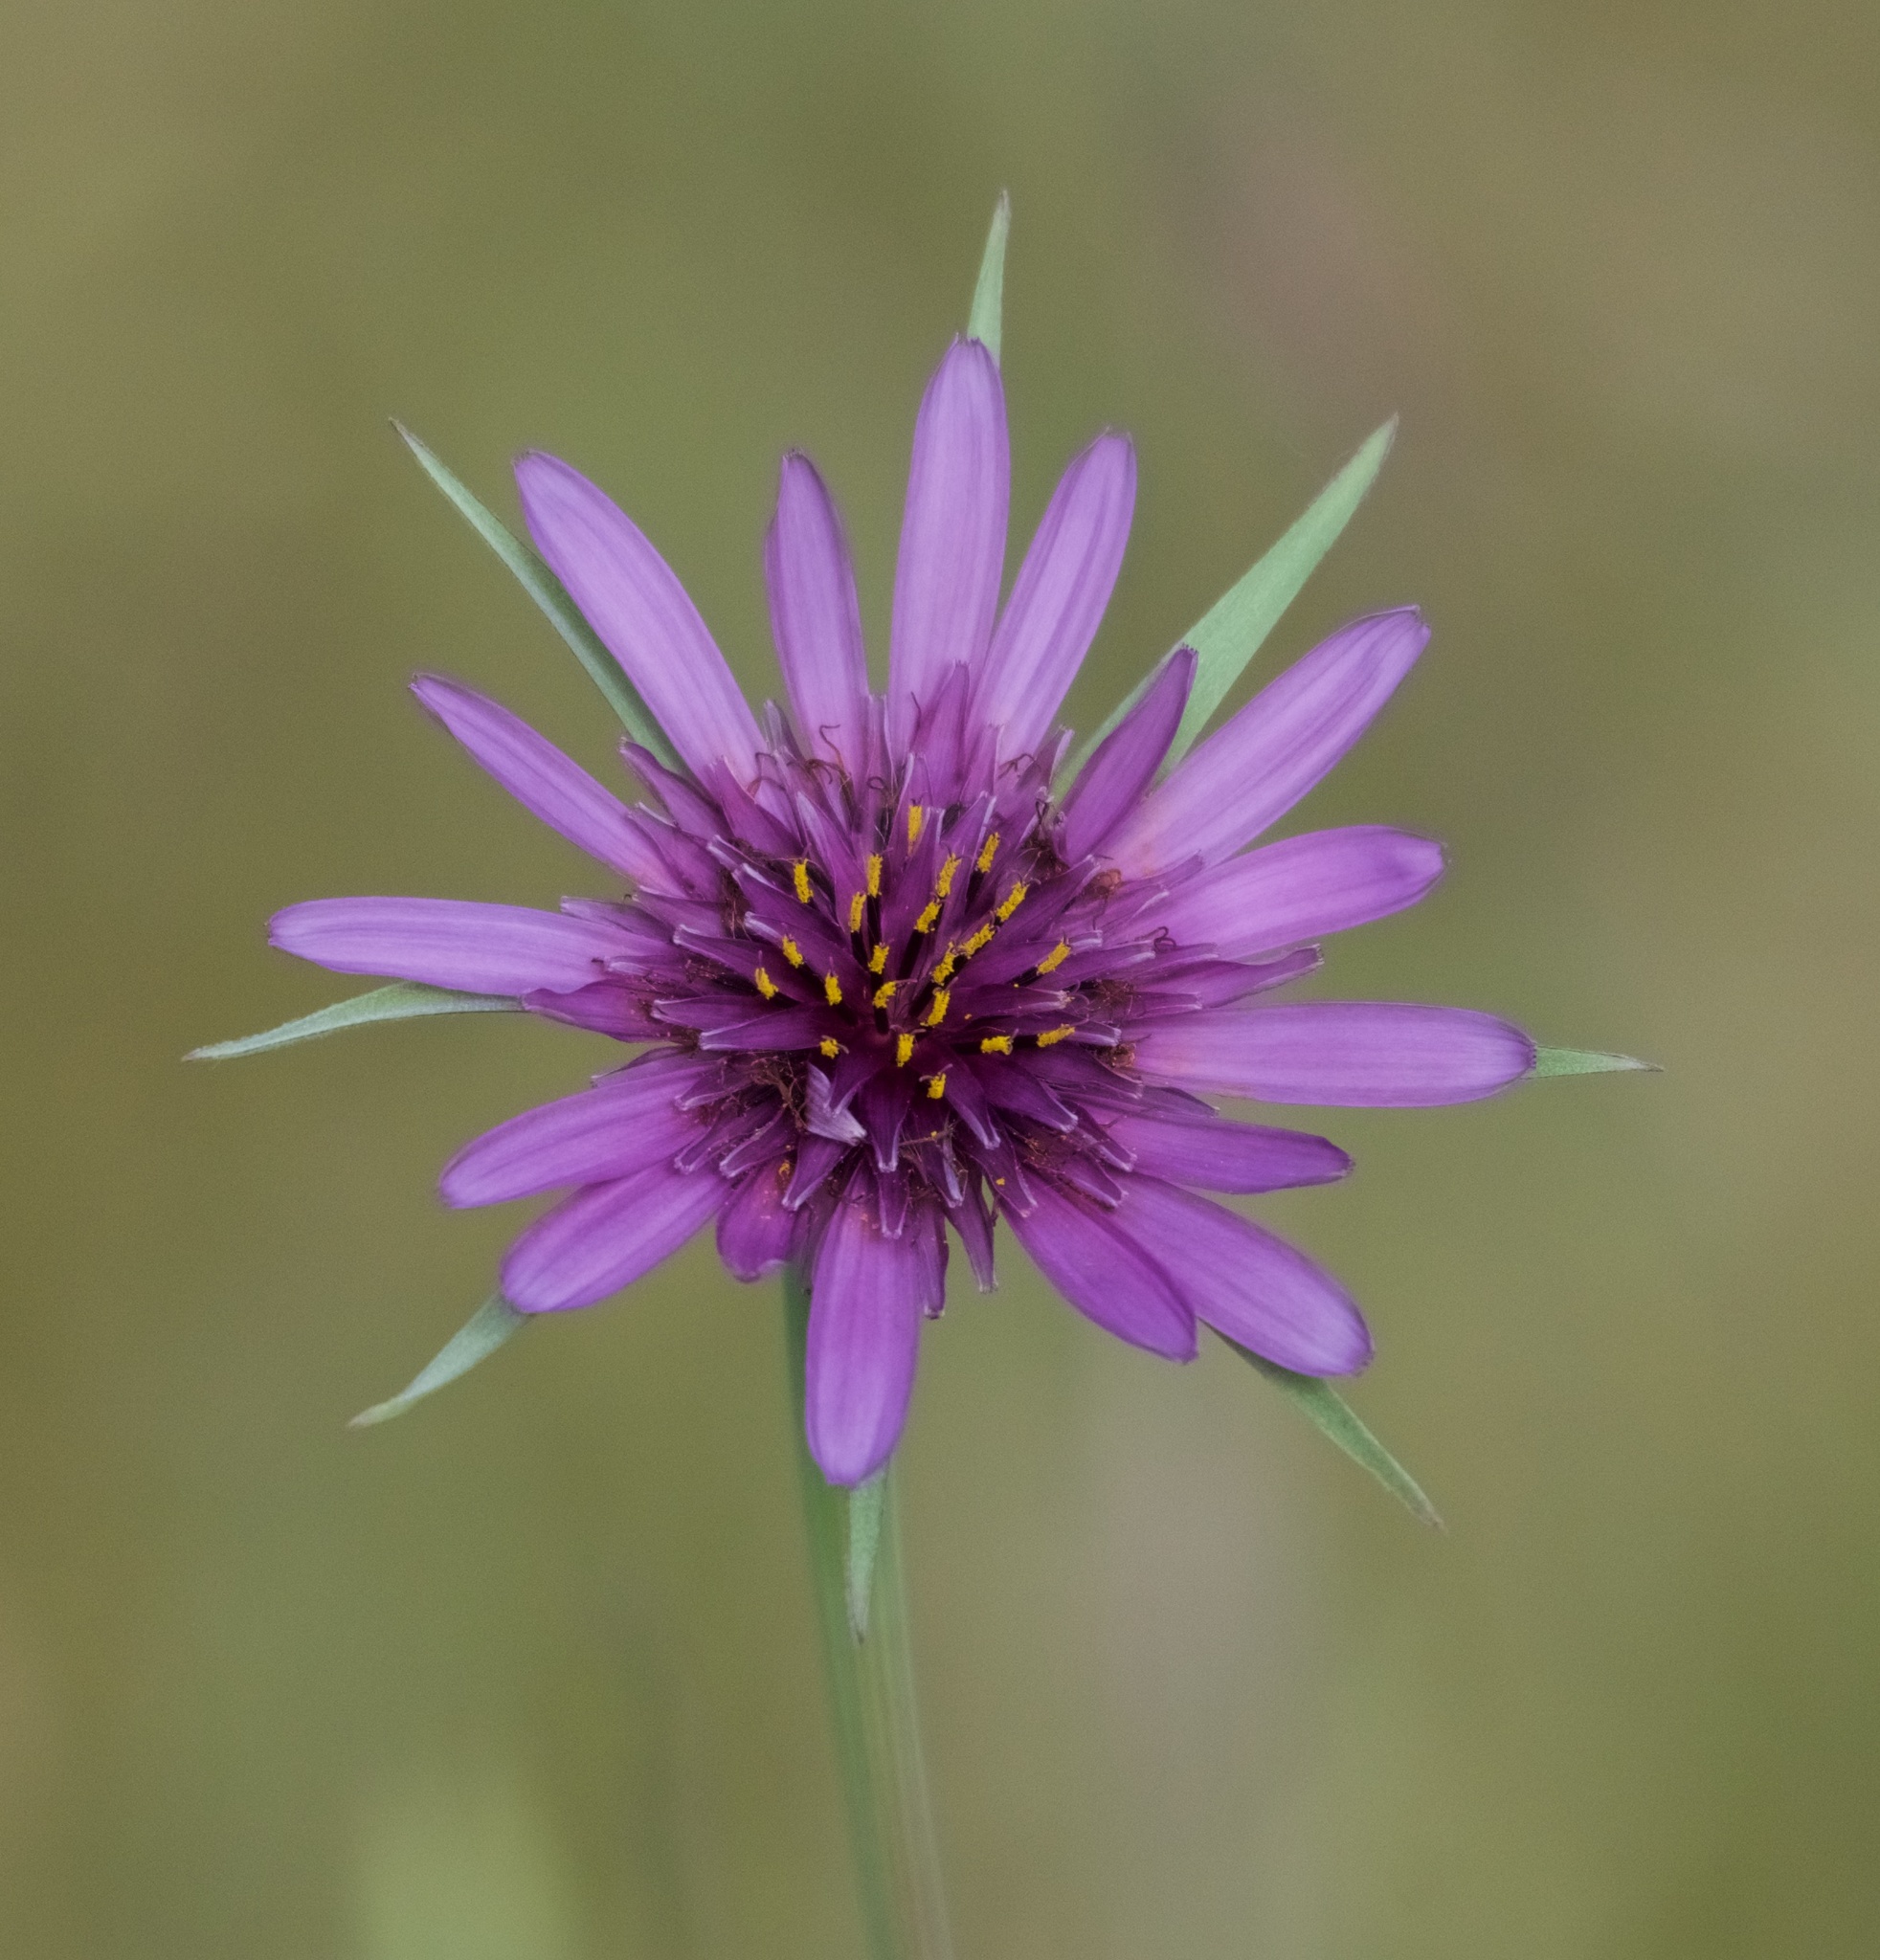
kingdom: Plantae
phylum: Tracheophyta
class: Magnoliopsida
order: Asterales
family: Asteraceae
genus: Tragopogon
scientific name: Tragopogon porrifolius
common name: Salsify
